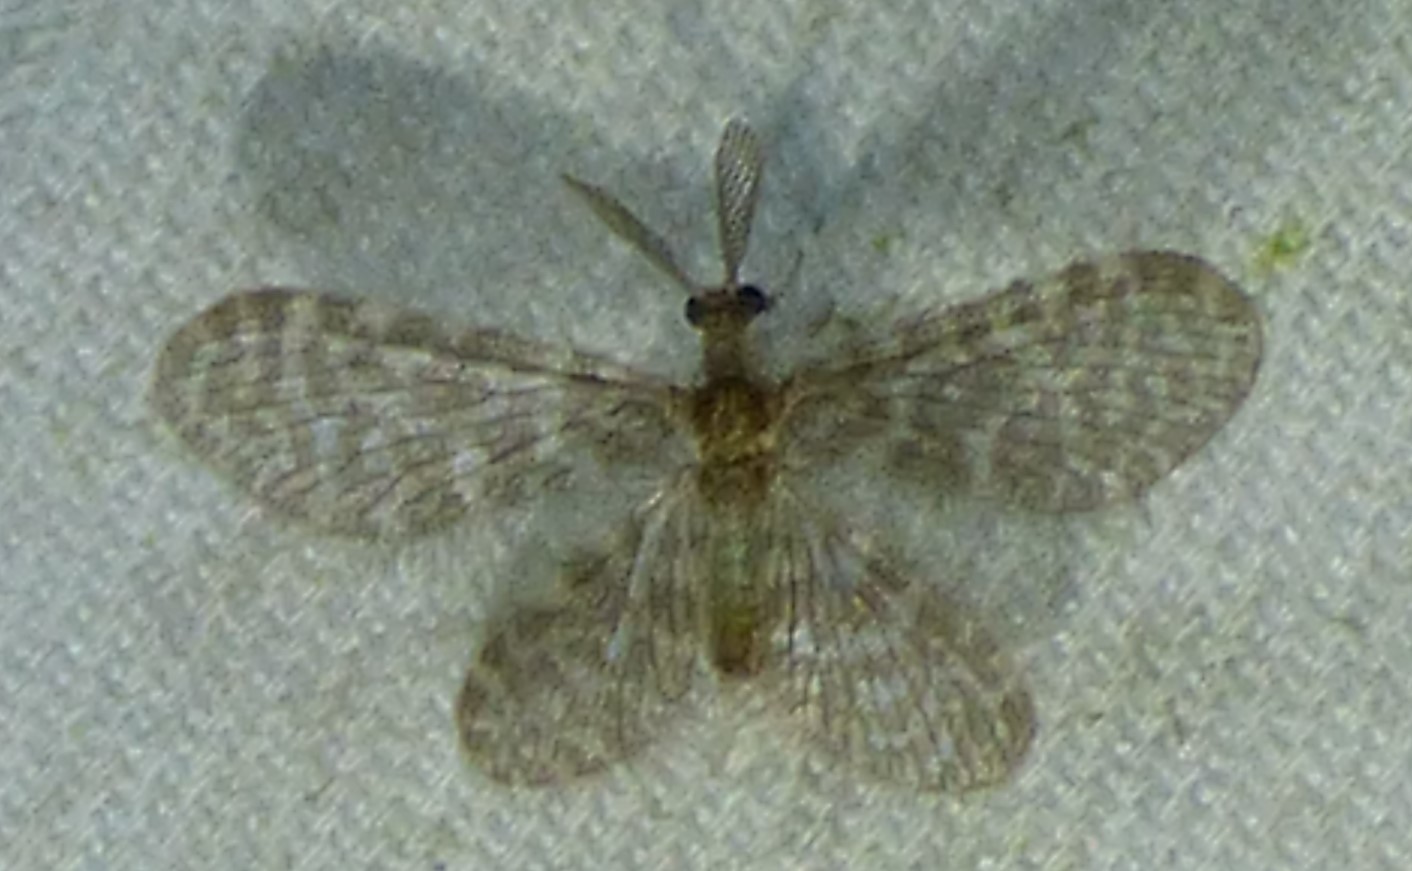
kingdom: Animalia
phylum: Arthropoda
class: Insecta
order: Neuroptera
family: Dilaridae
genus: Nallachius
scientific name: Nallachius americanus
